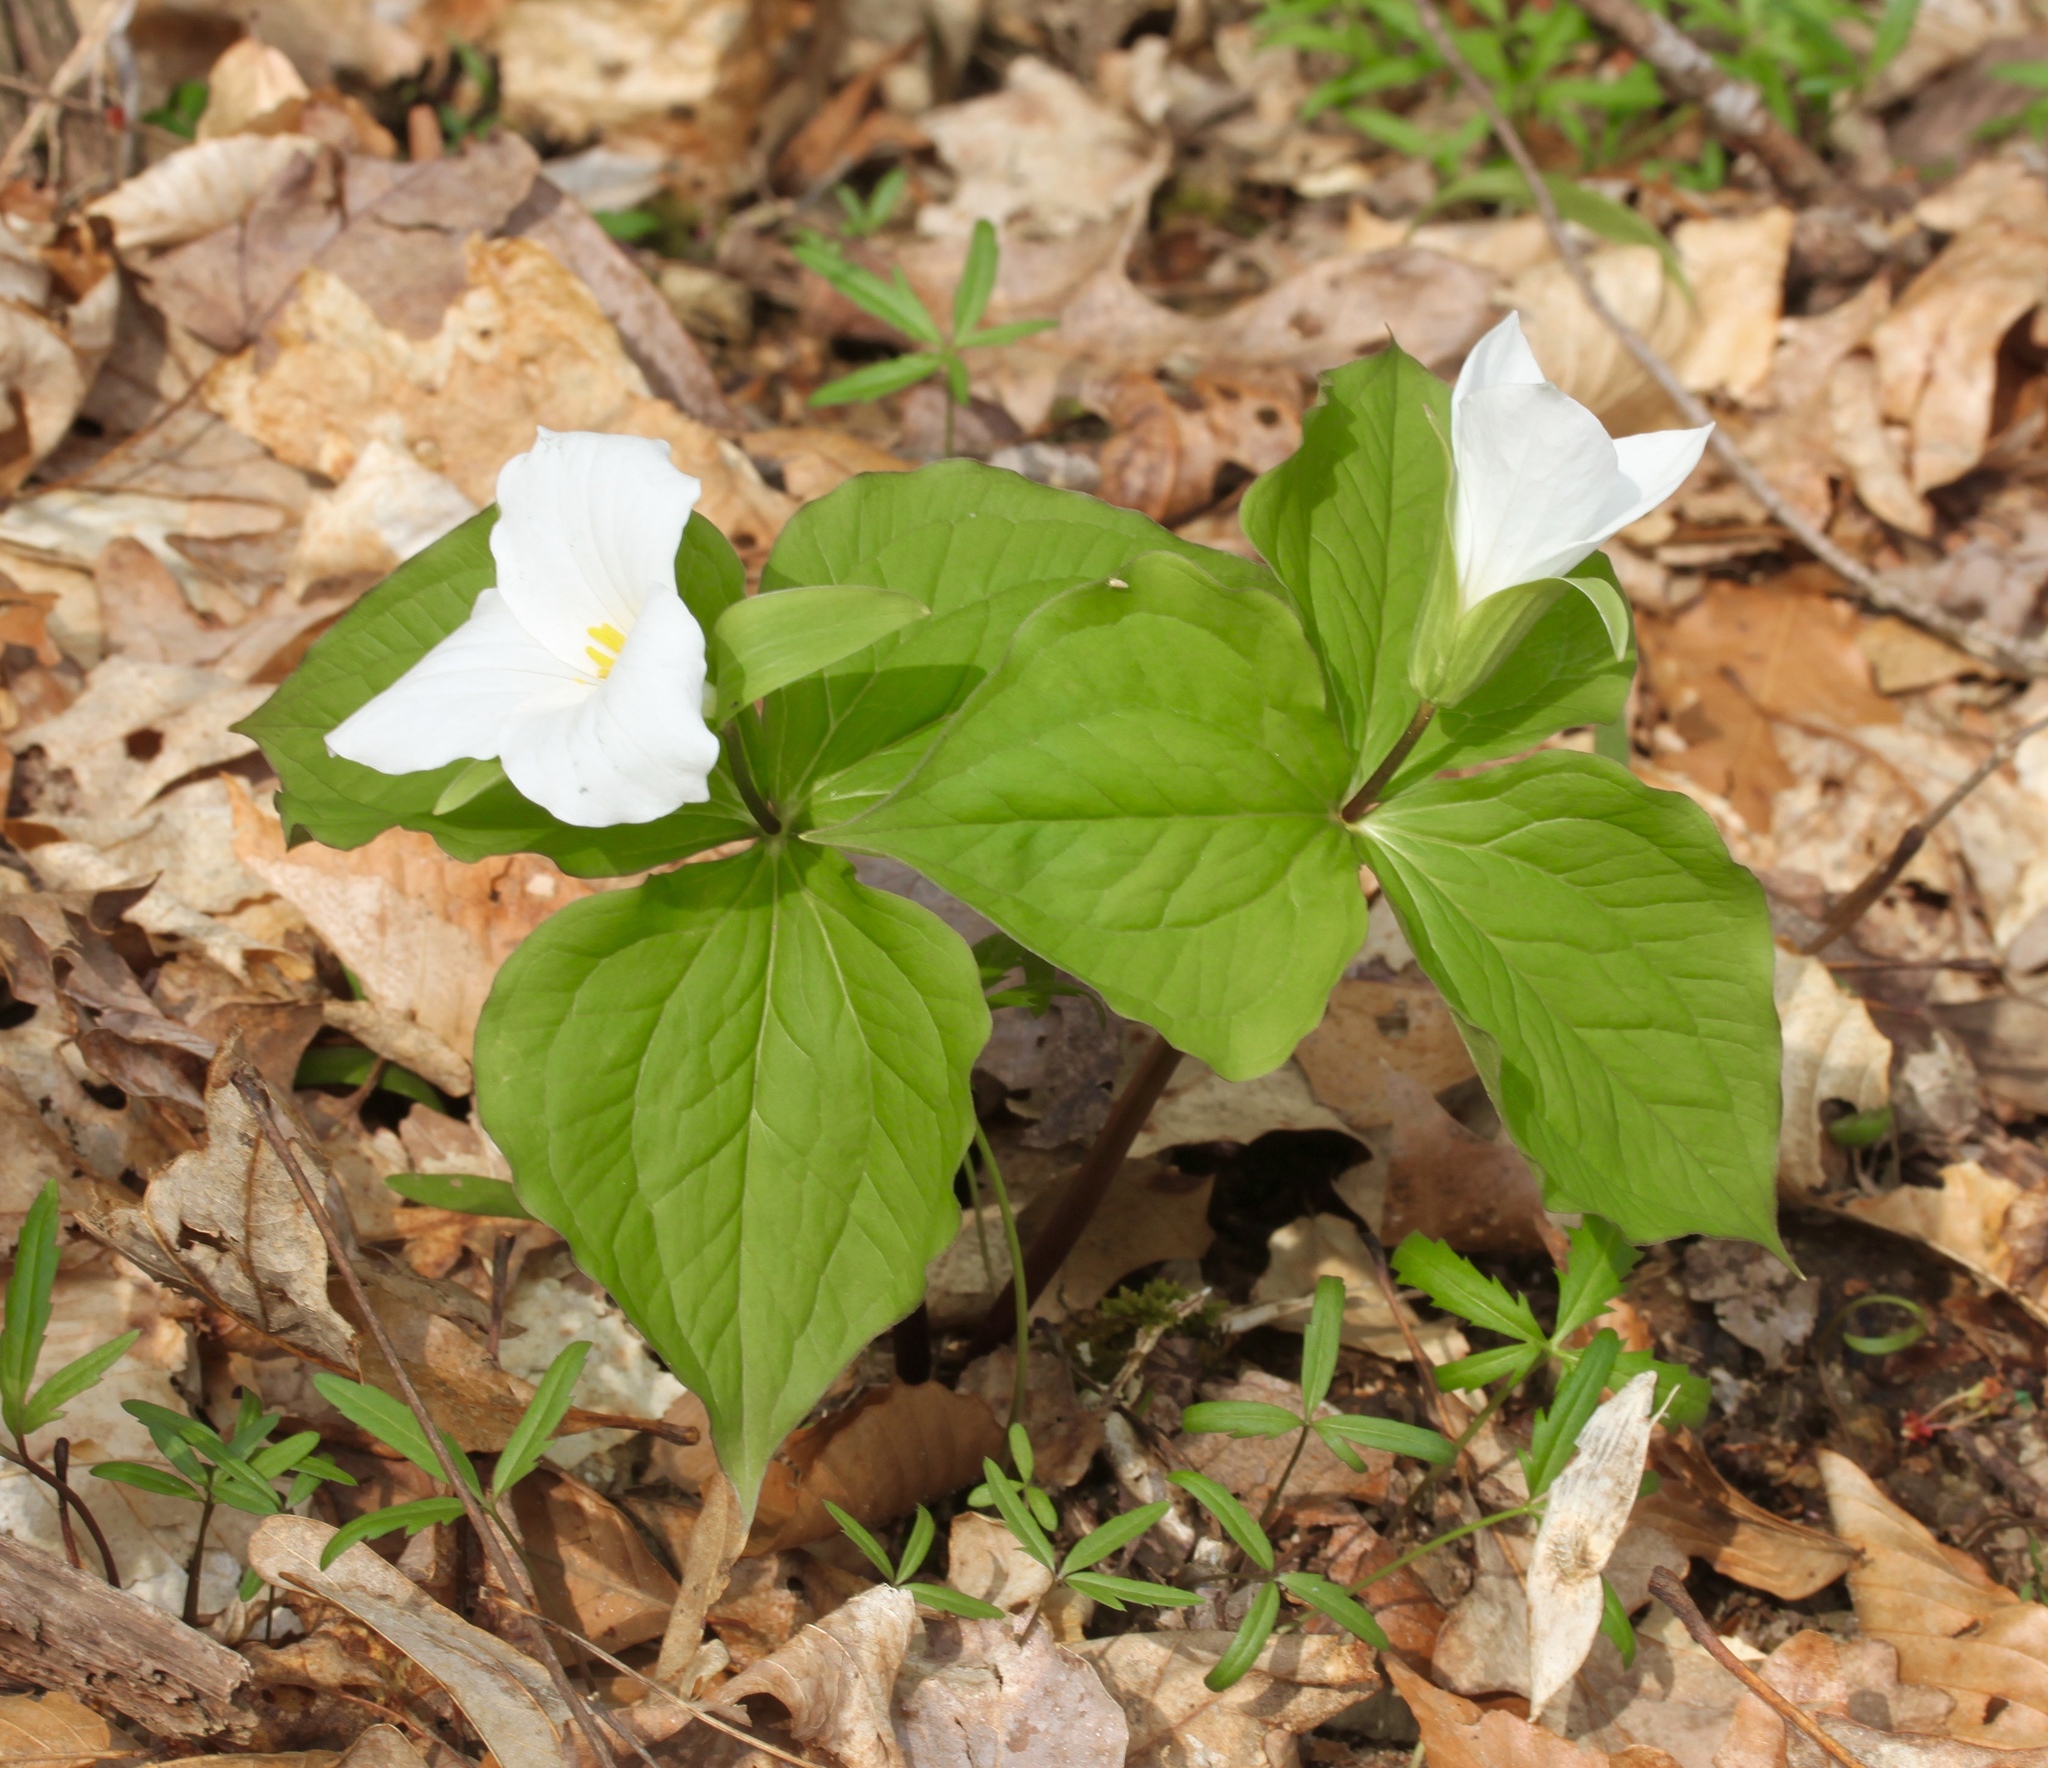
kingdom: Plantae
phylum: Tracheophyta
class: Liliopsida
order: Liliales
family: Melanthiaceae
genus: Trillium
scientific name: Trillium grandiflorum
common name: Great white trillium
